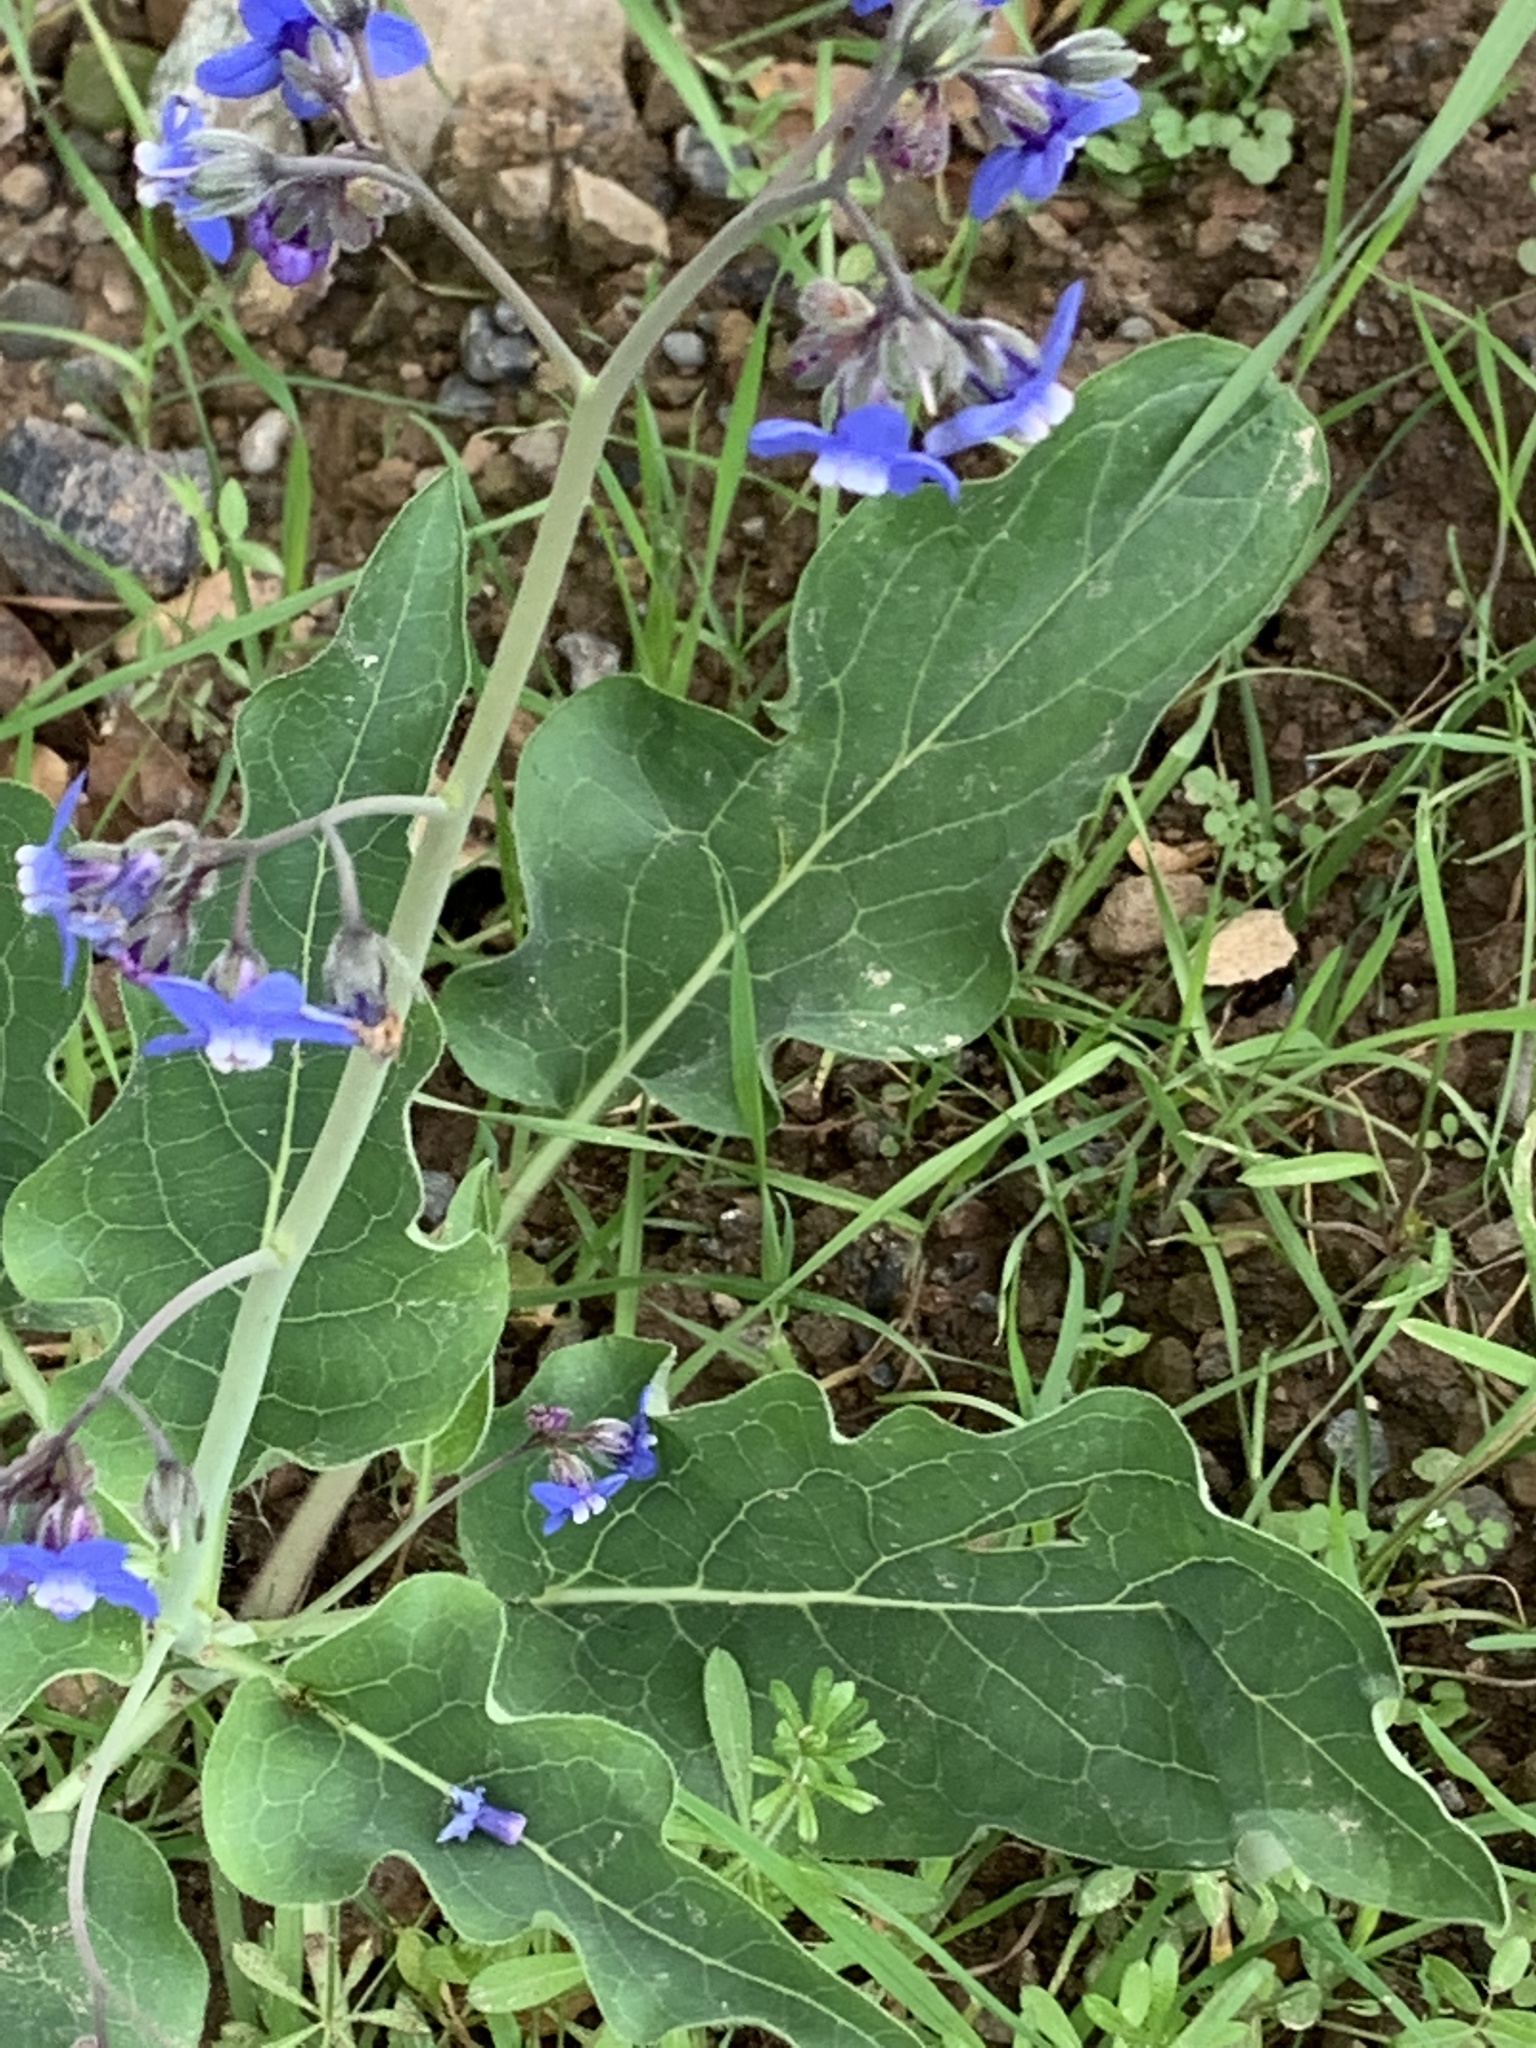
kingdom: Plantae
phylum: Tracheophyta
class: Magnoliopsida
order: Boraginales
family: Boraginaceae
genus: Adelinia
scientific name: Adelinia grande
